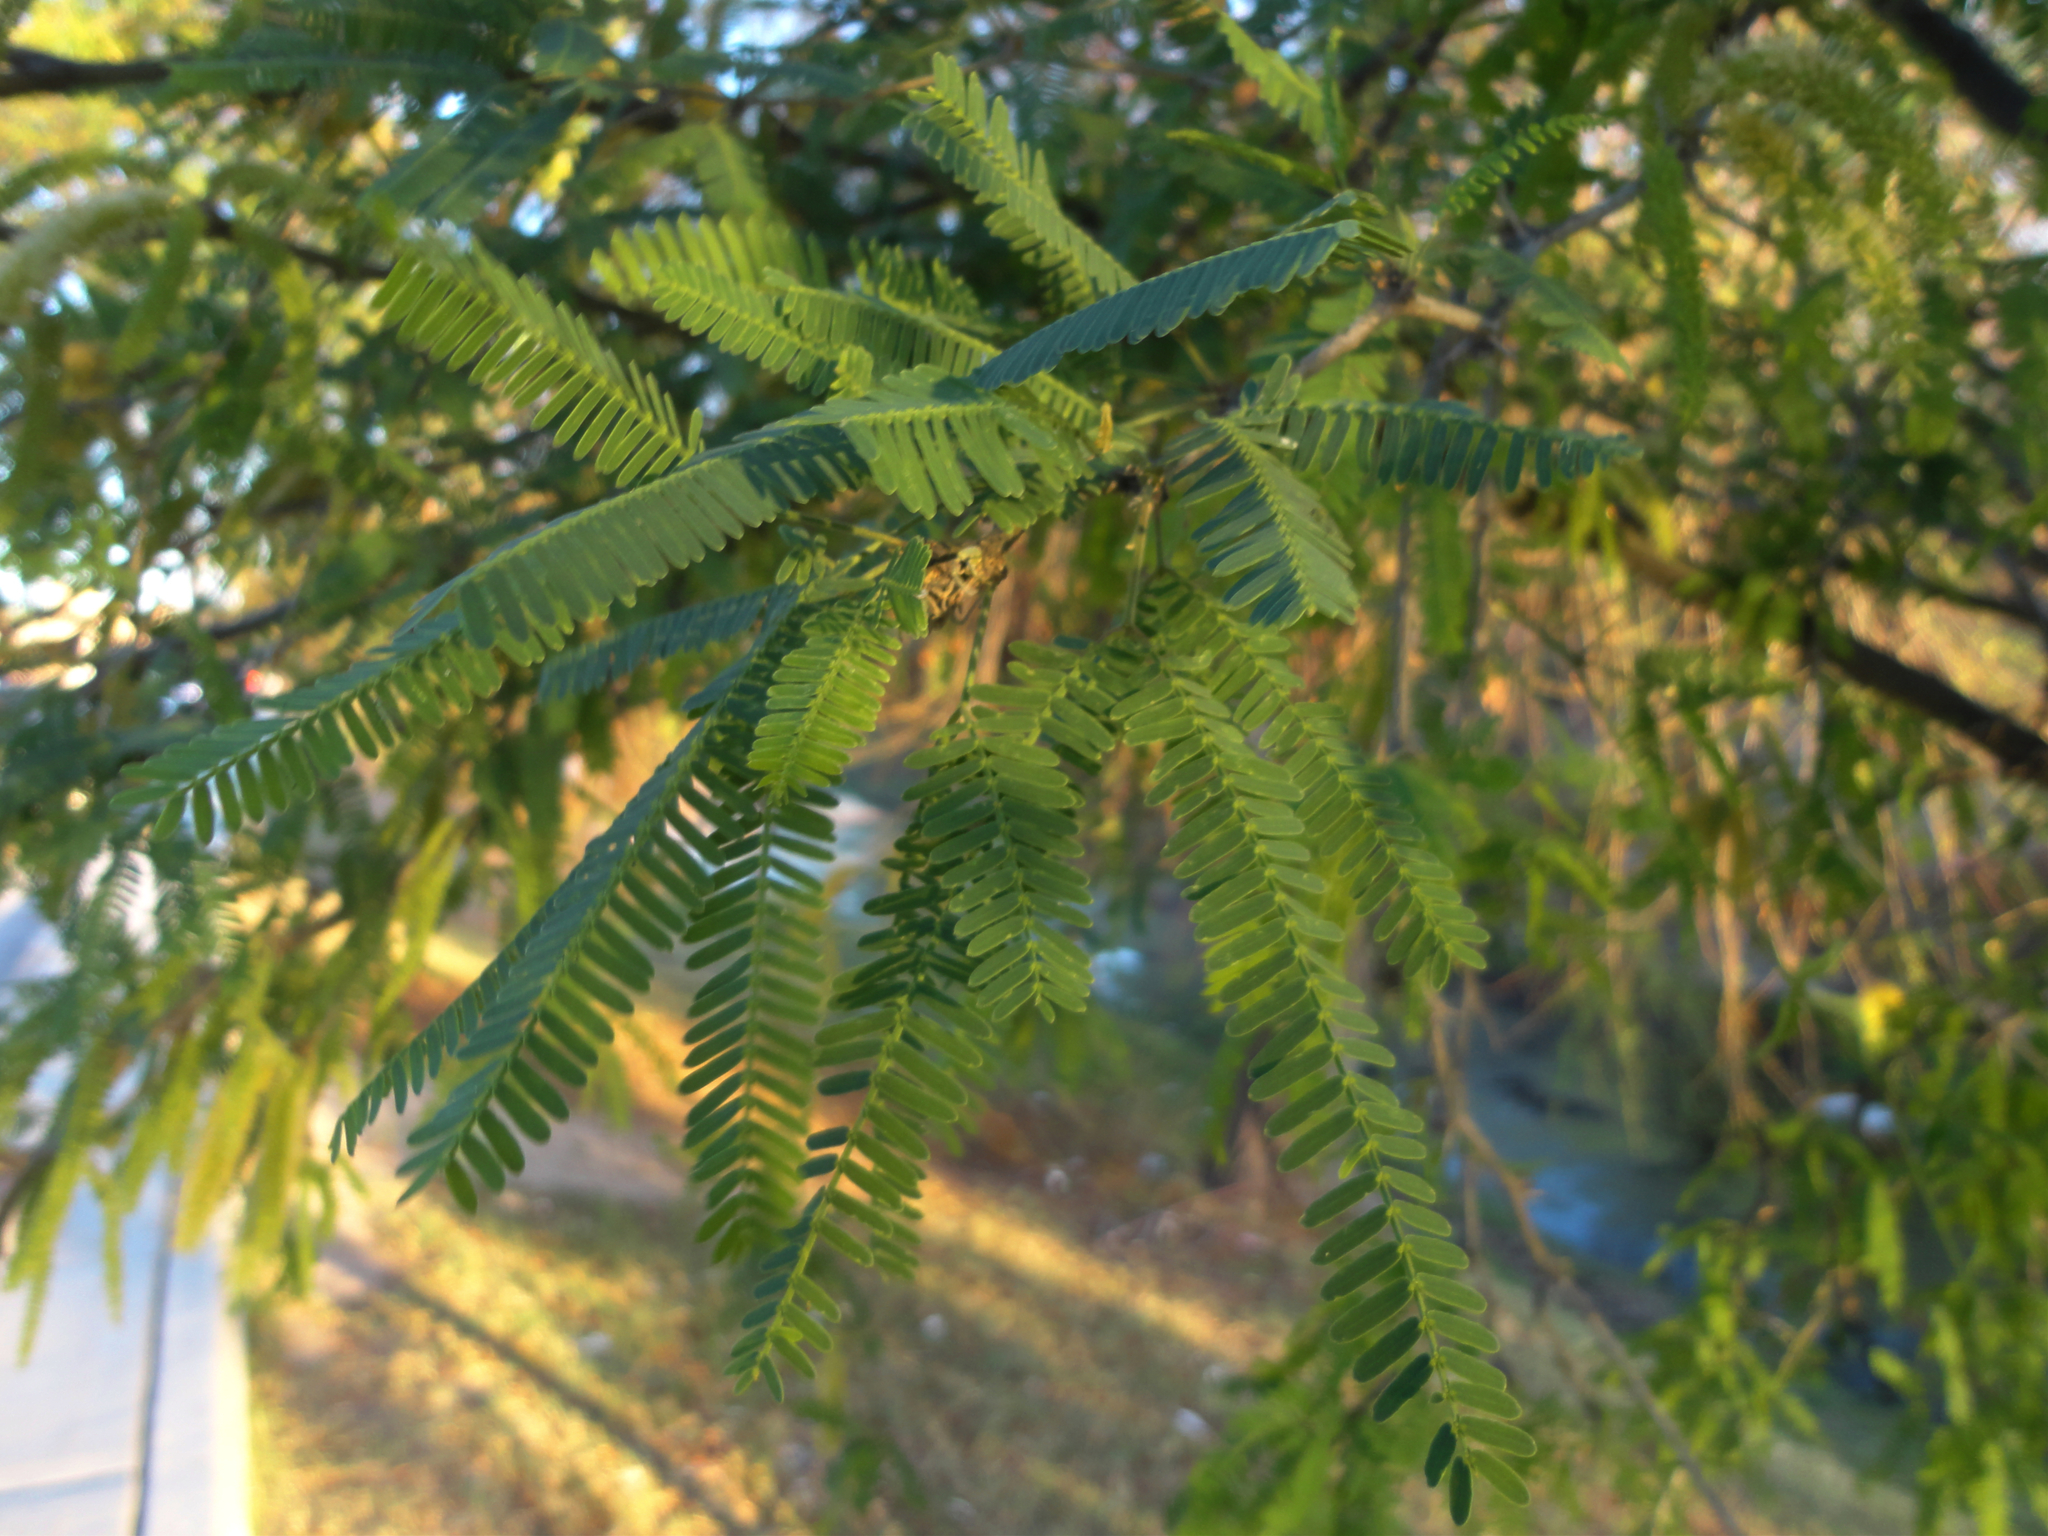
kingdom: Plantae
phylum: Tracheophyta
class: Magnoliopsida
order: Fabales
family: Fabaceae
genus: Prosopis
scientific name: Prosopis laevigata
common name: Smooth mesquite
